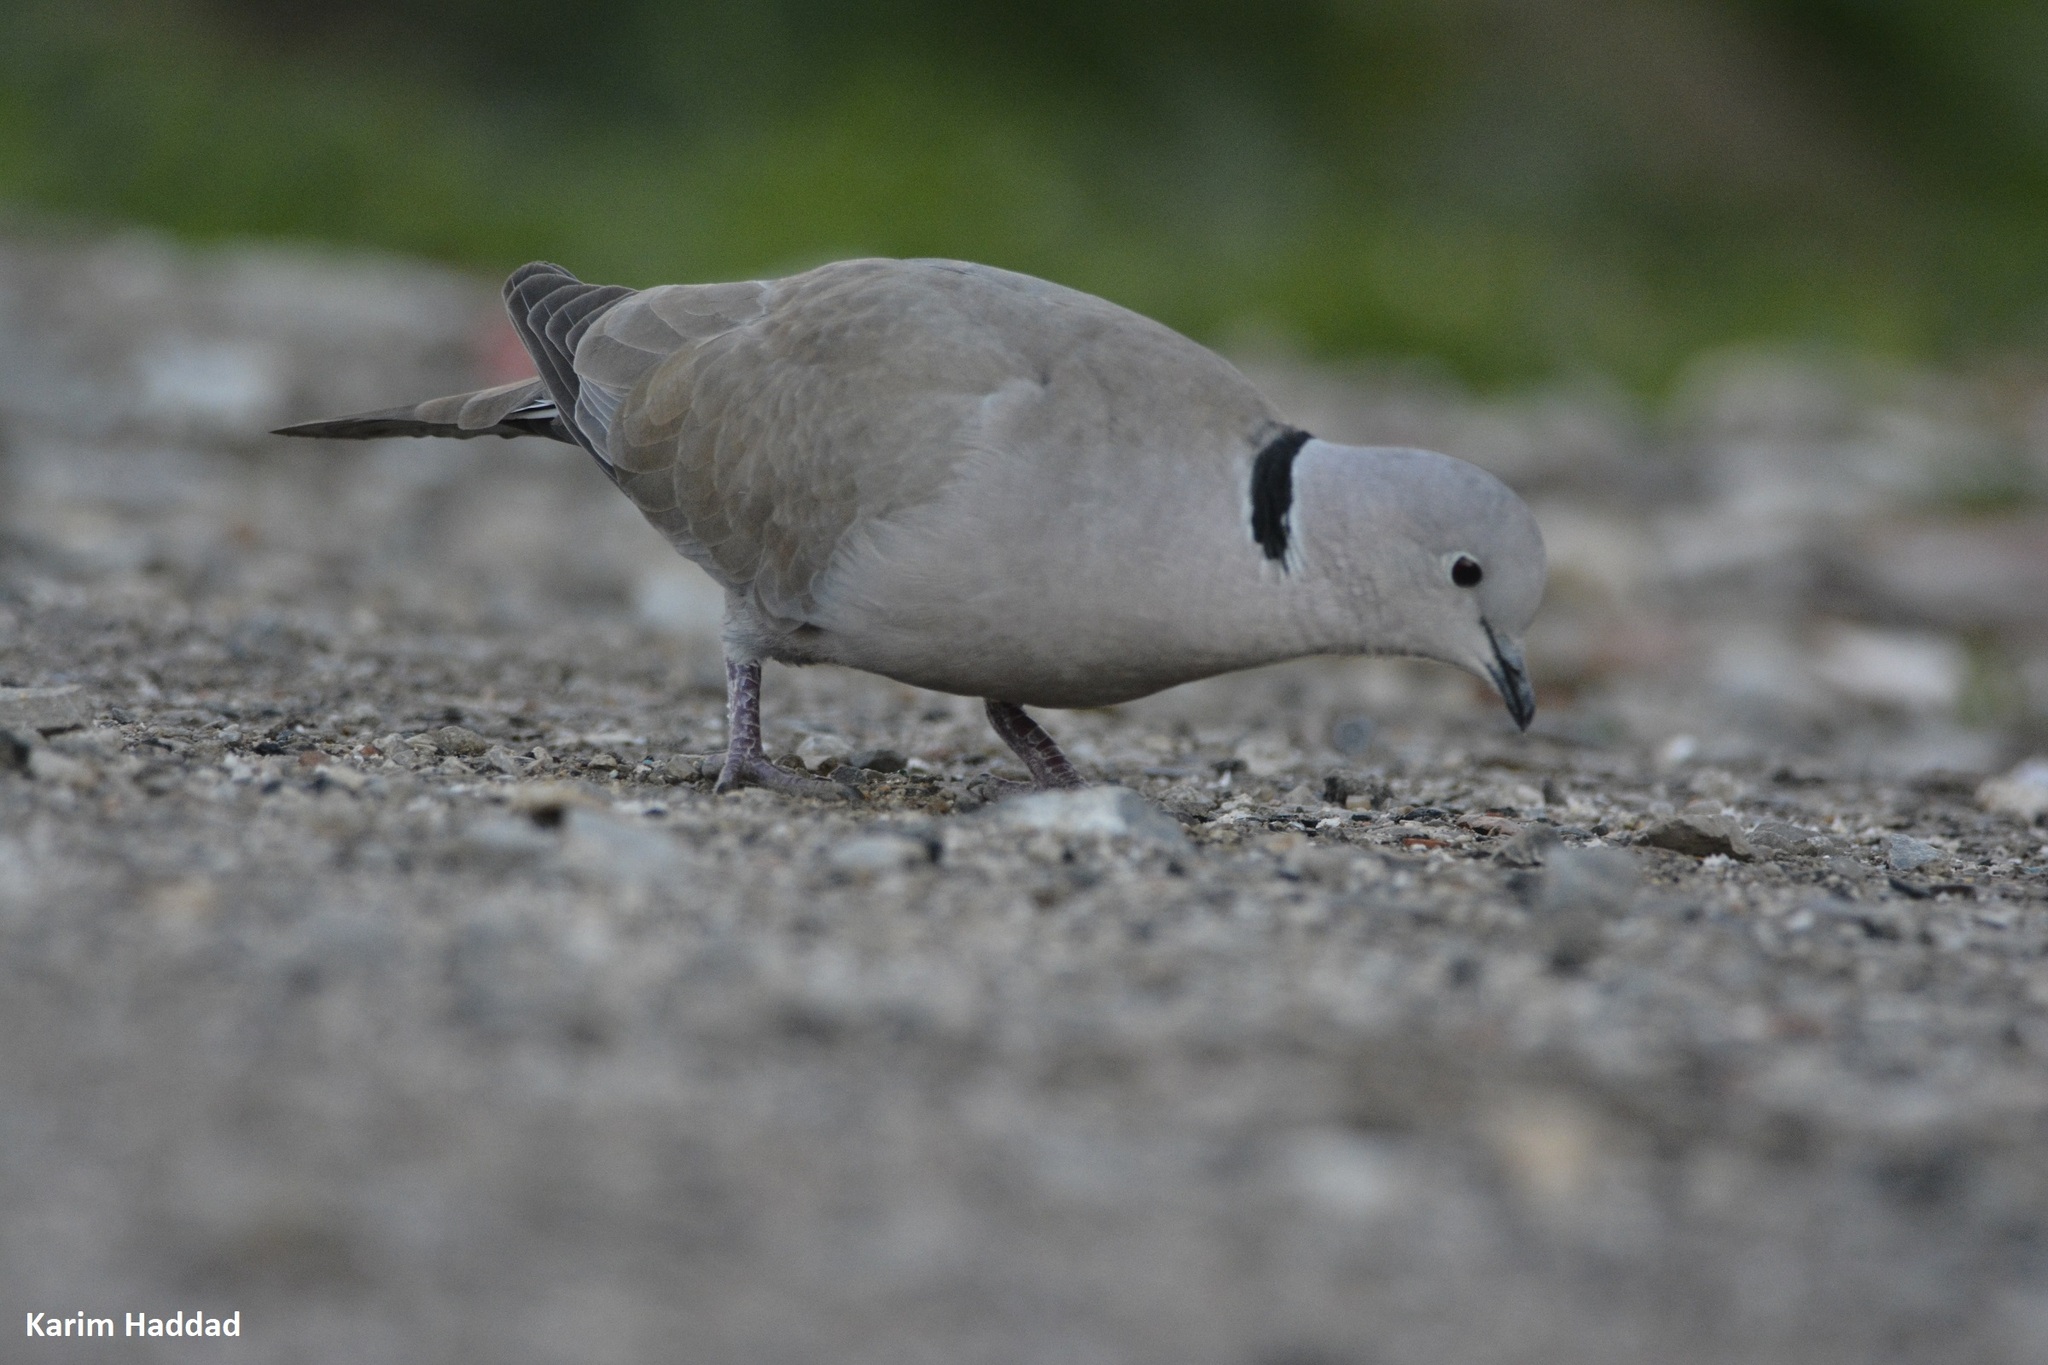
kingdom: Animalia
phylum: Chordata
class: Aves
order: Columbiformes
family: Columbidae
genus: Streptopelia
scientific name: Streptopelia decaocto
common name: Eurasian collared dove
